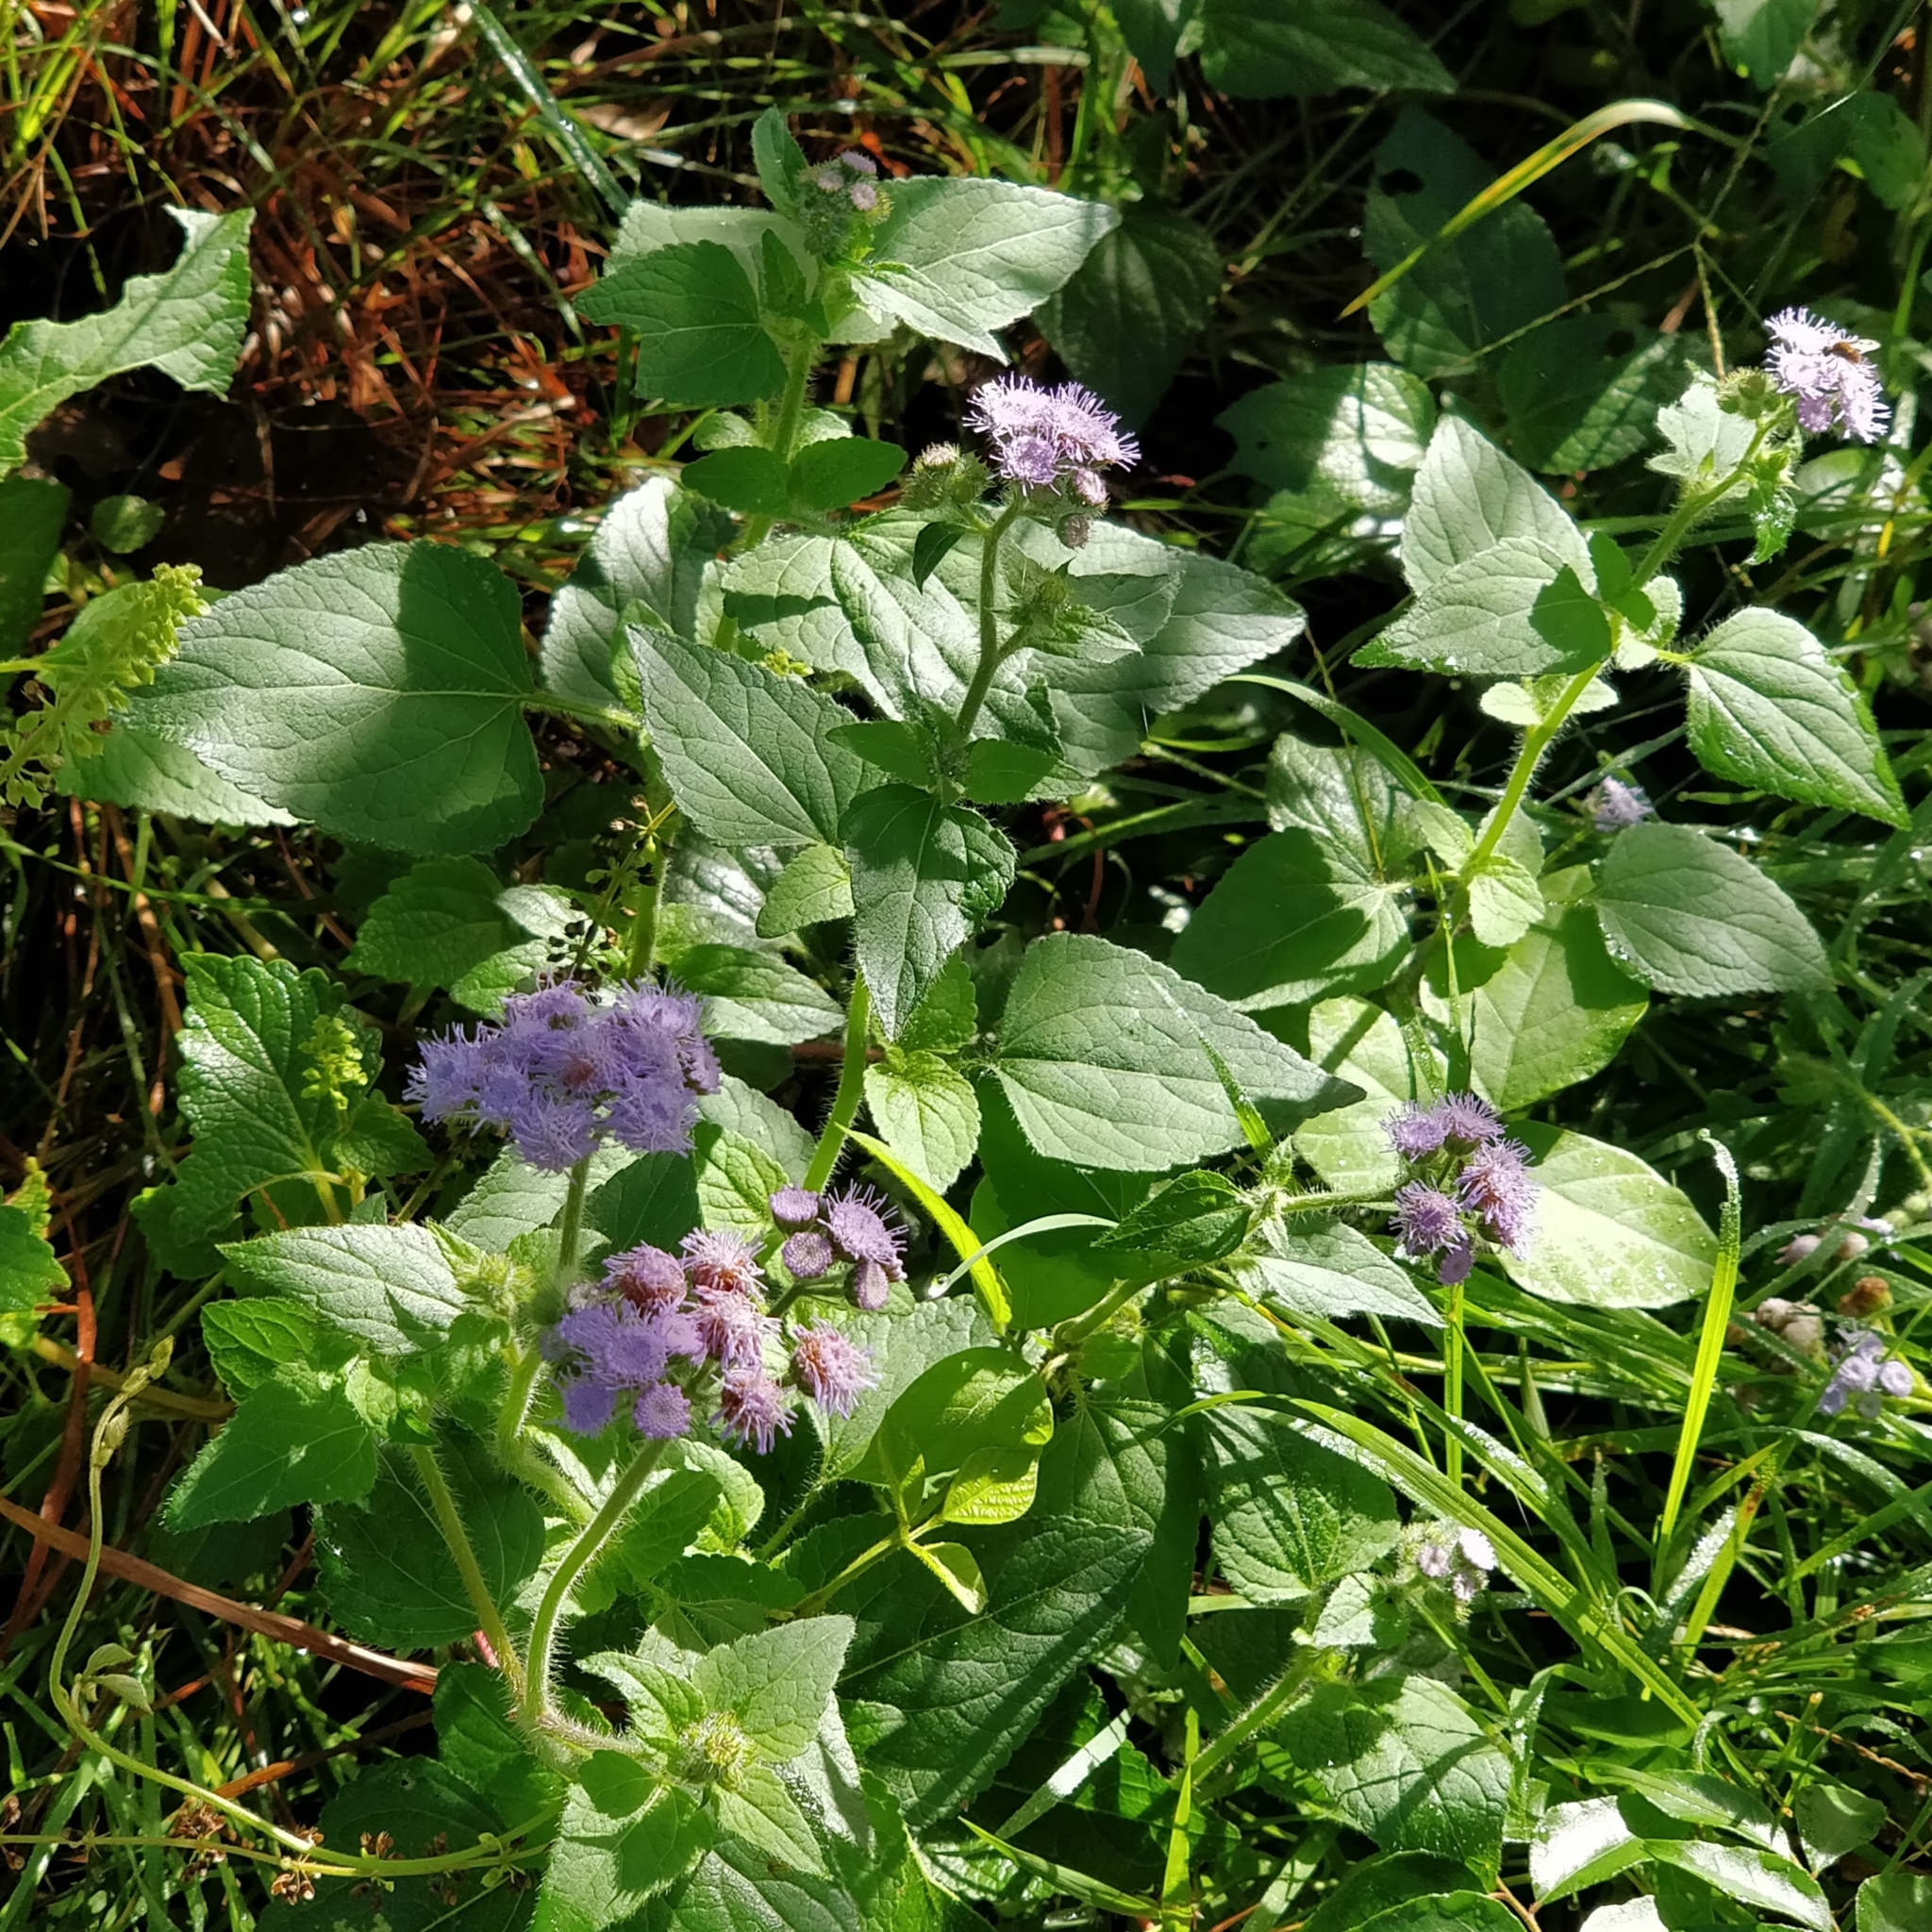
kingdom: Plantae
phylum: Tracheophyta
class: Magnoliopsida
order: Asterales
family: Asteraceae
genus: Ageratum
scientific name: Ageratum houstonianum
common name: Bluemink
